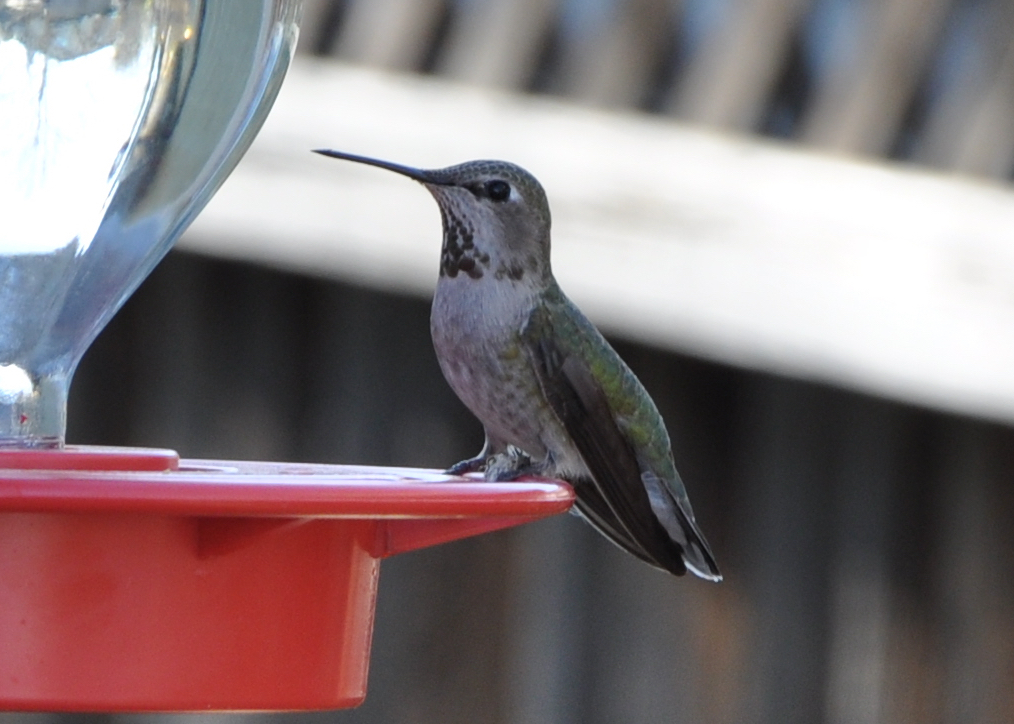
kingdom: Animalia
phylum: Chordata
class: Aves
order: Apodiformes
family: Trochilidae
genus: Calypte
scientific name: Calypte anna
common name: Anna's hummingbird
